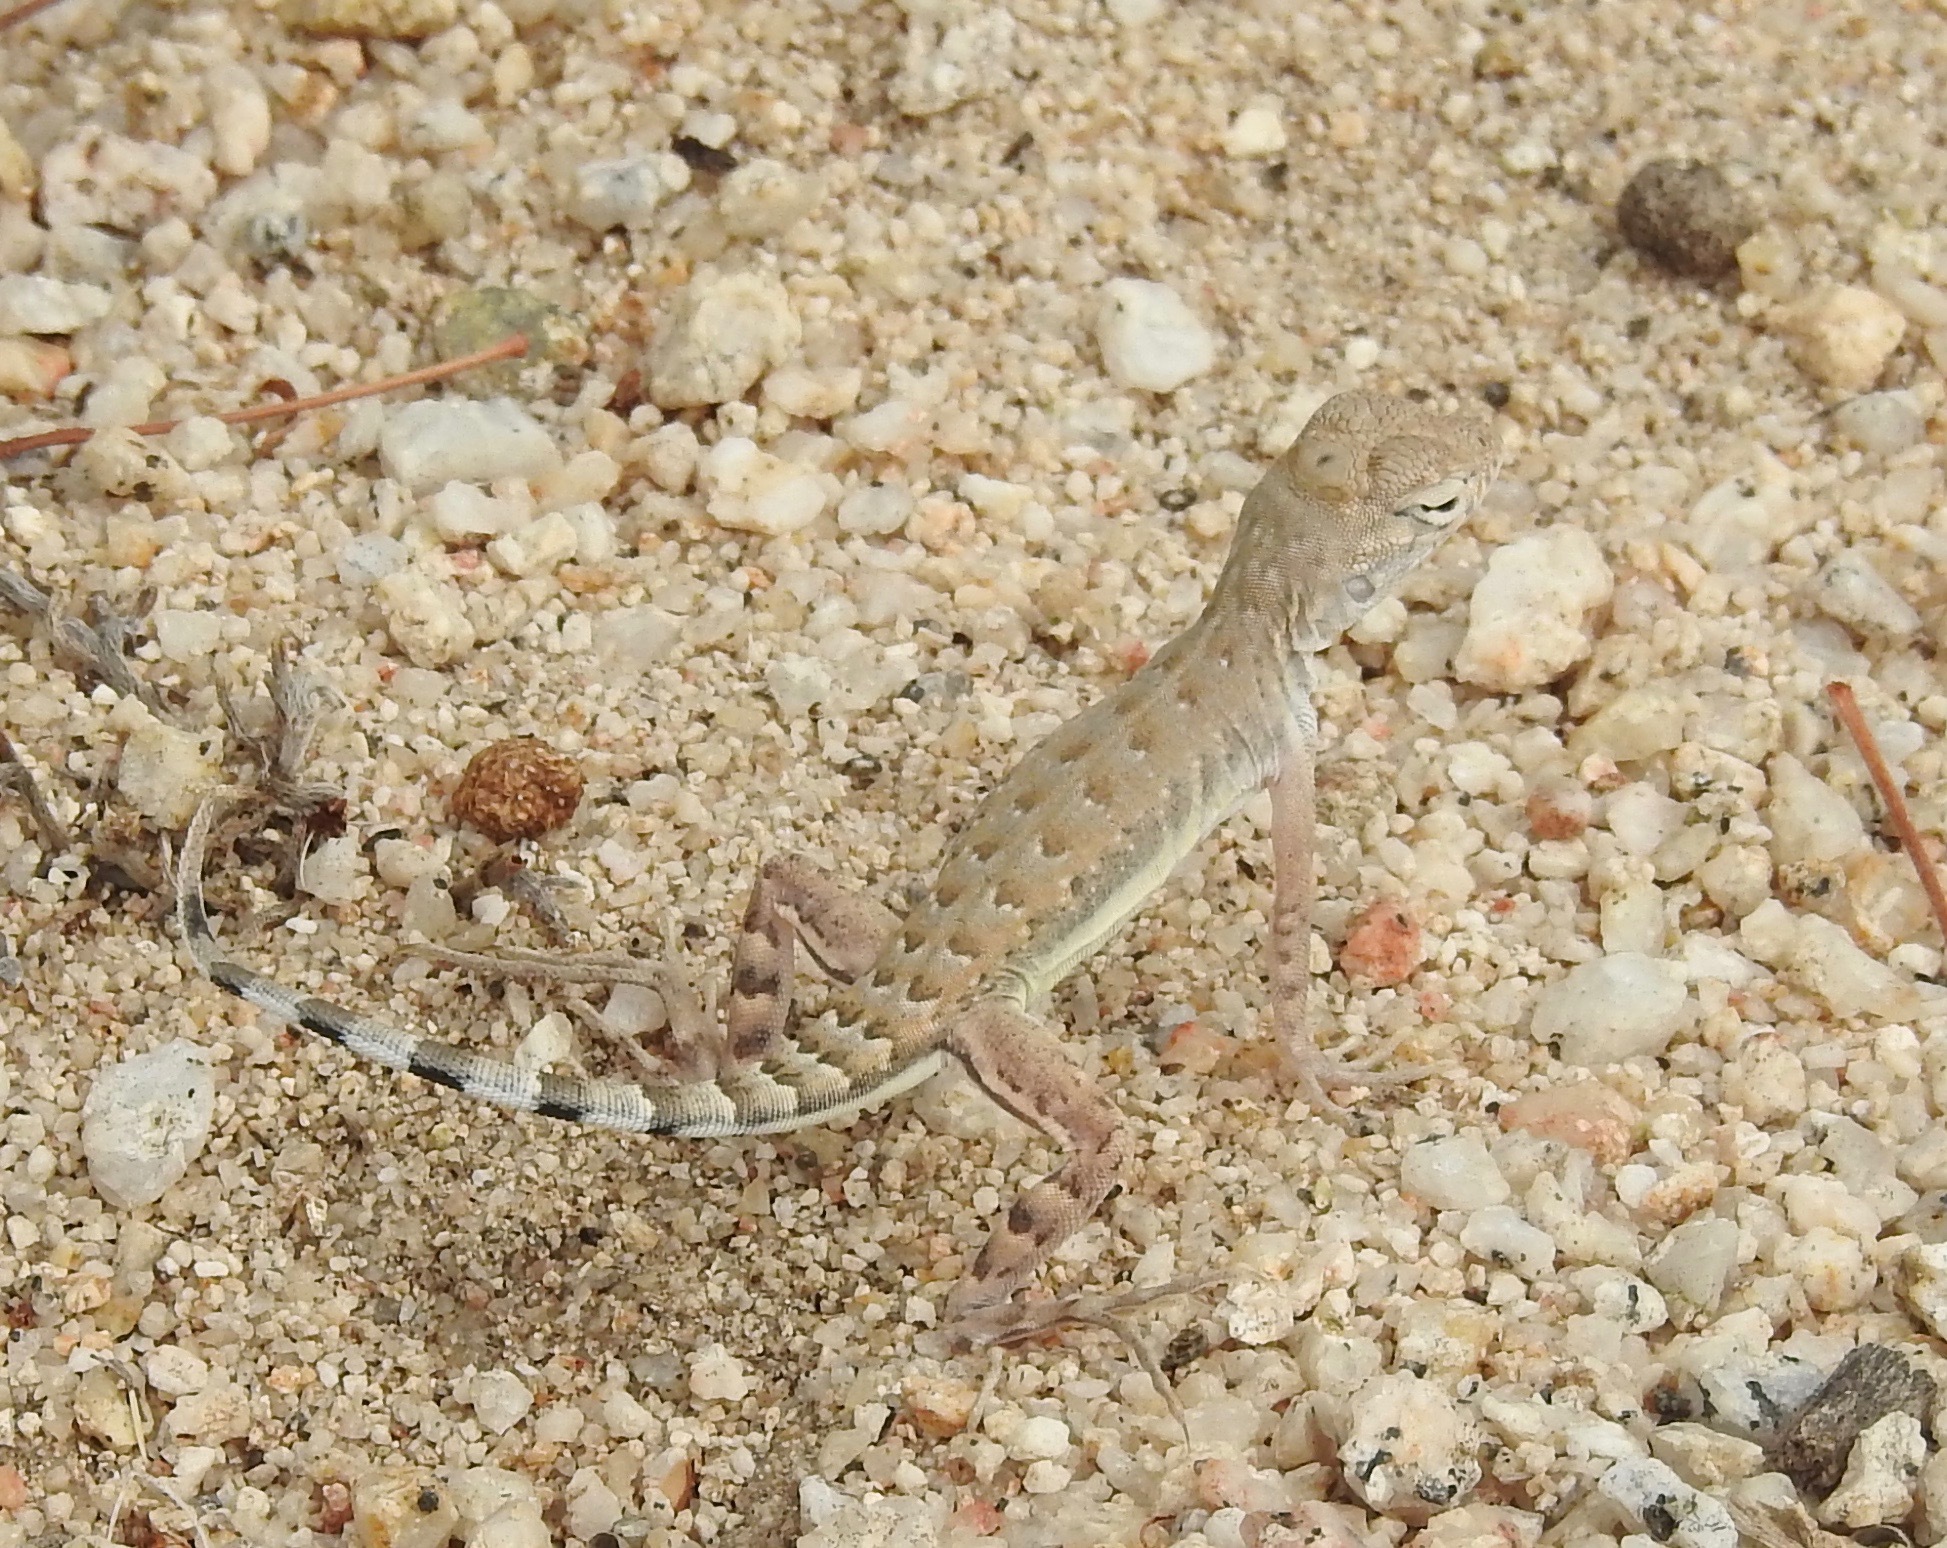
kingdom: Animalia
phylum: Chordata
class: Squamata
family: Phrynosomatidae
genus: Callisaurus
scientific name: Callisaurus draconoides
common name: Zebra-tailed lizard
